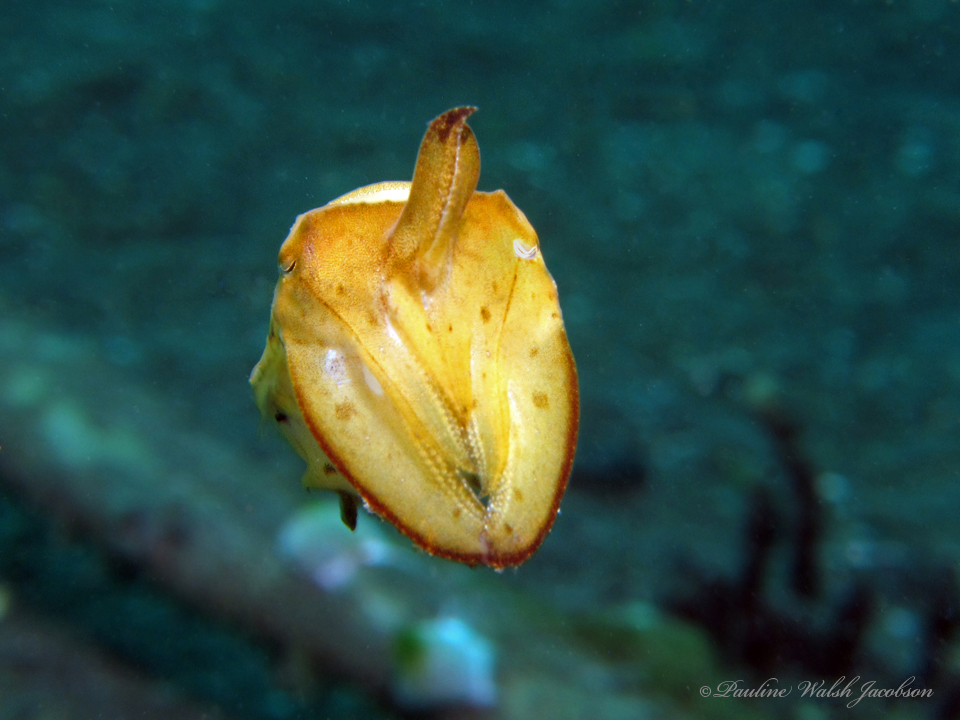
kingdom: Animalia
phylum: Mollusca
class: Cephalopoda
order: Sepiida
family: Sepiidae
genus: Ascarosepion
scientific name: Ascarosepion latimanus
